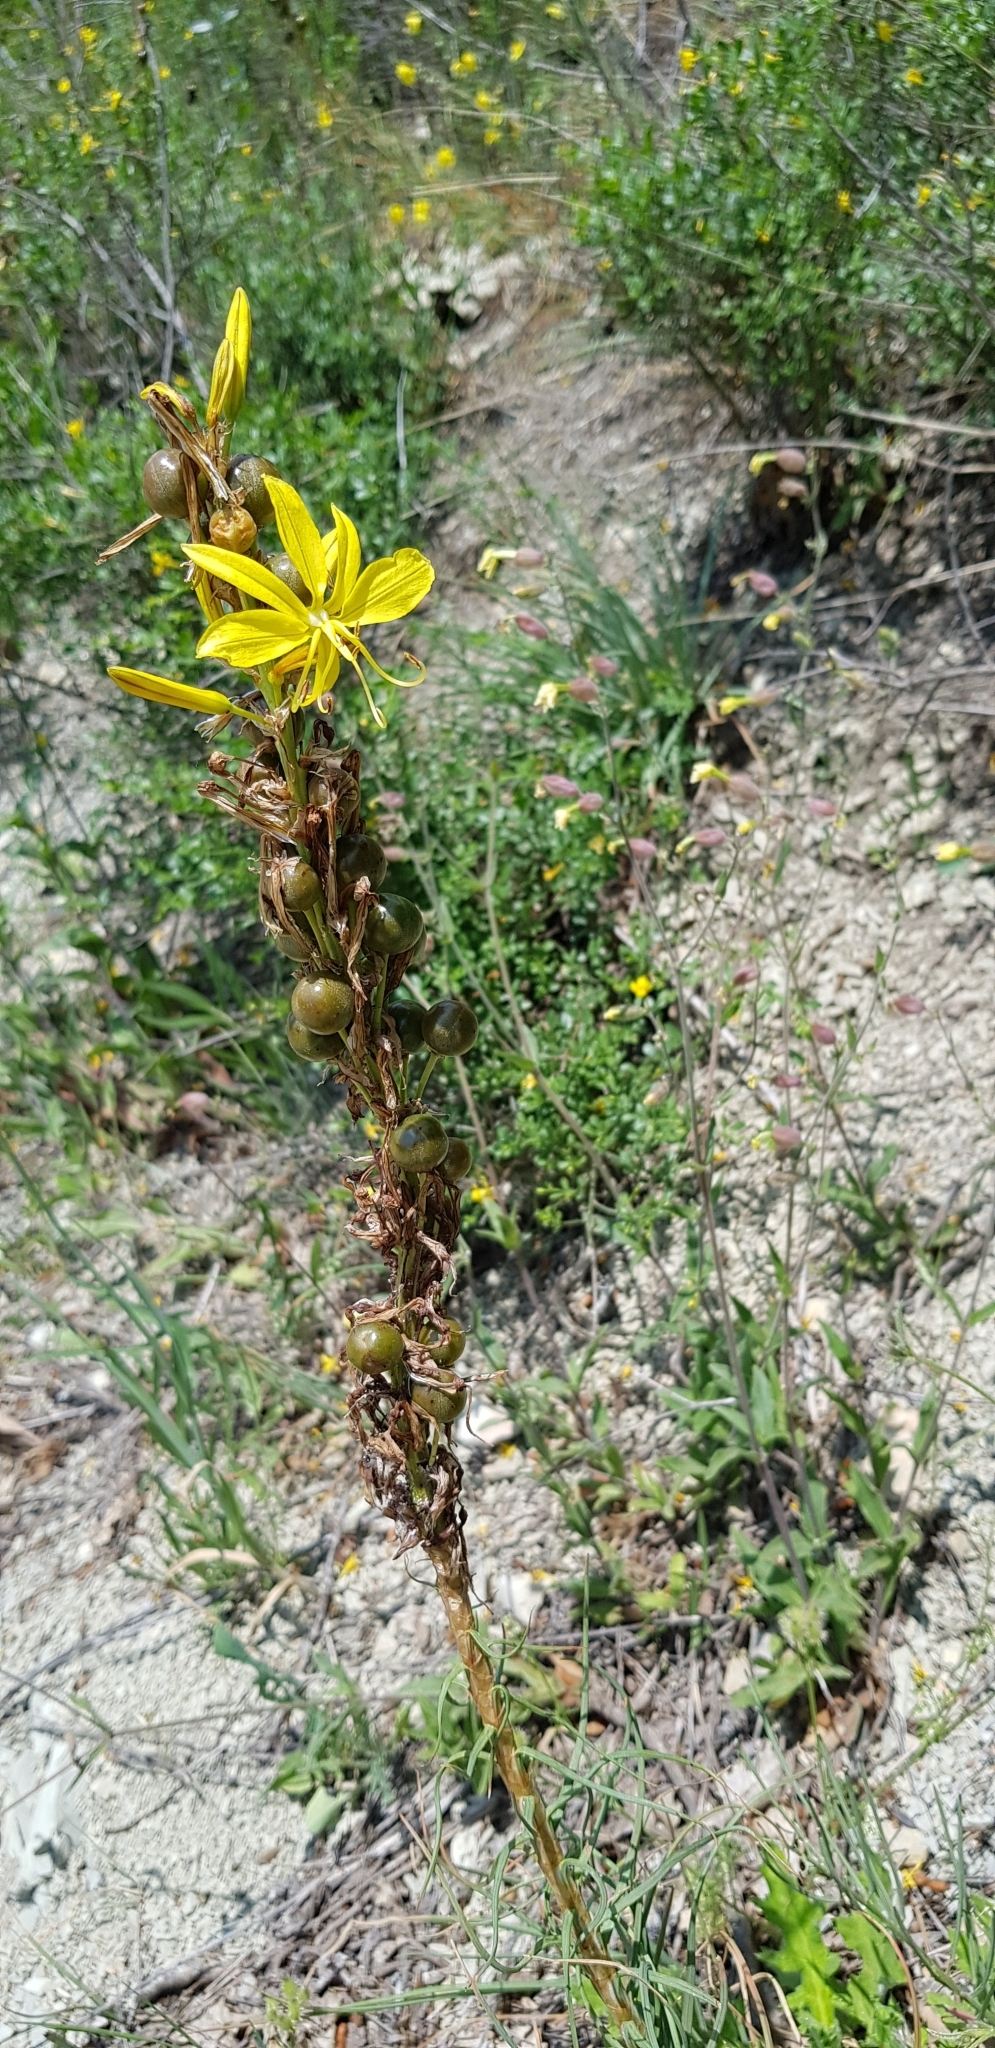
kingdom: Plantae
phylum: Tracheophyta
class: Liliopsida
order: Asparagales
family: Asphodelaceae
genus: Asphodeline
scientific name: Asphodeline lutea
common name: Yellow asphodel
